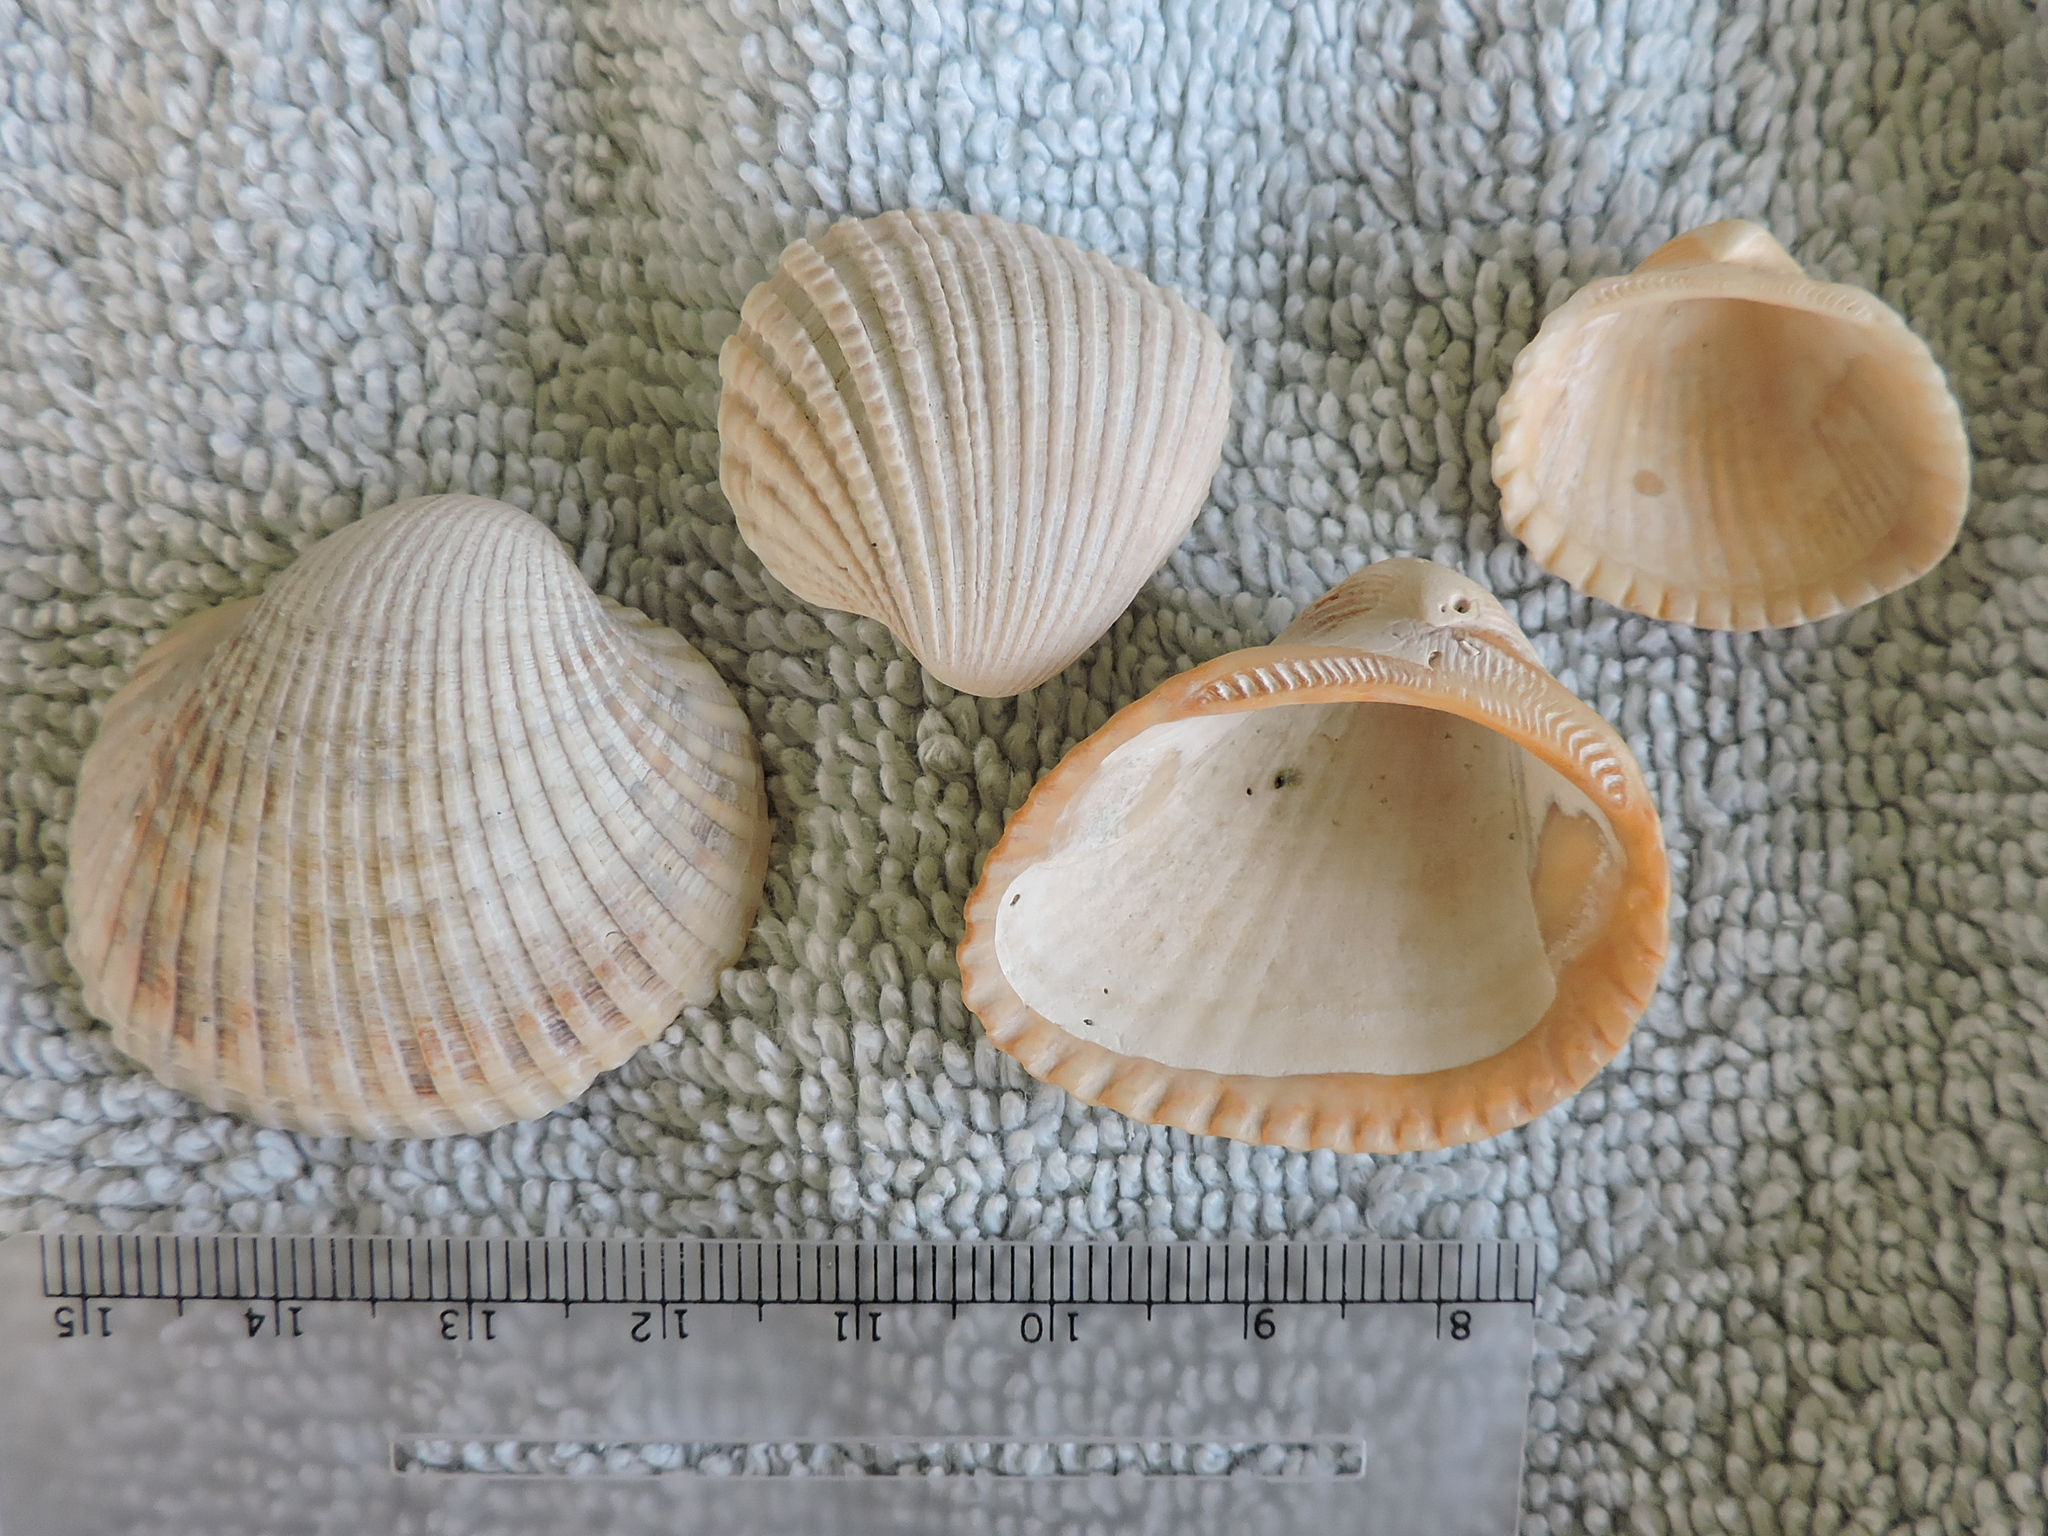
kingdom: Animalia
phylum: Mollusca
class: Bivalvia
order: Arcida
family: Arcidae
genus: Anadara
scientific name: Anadara brasiliana
